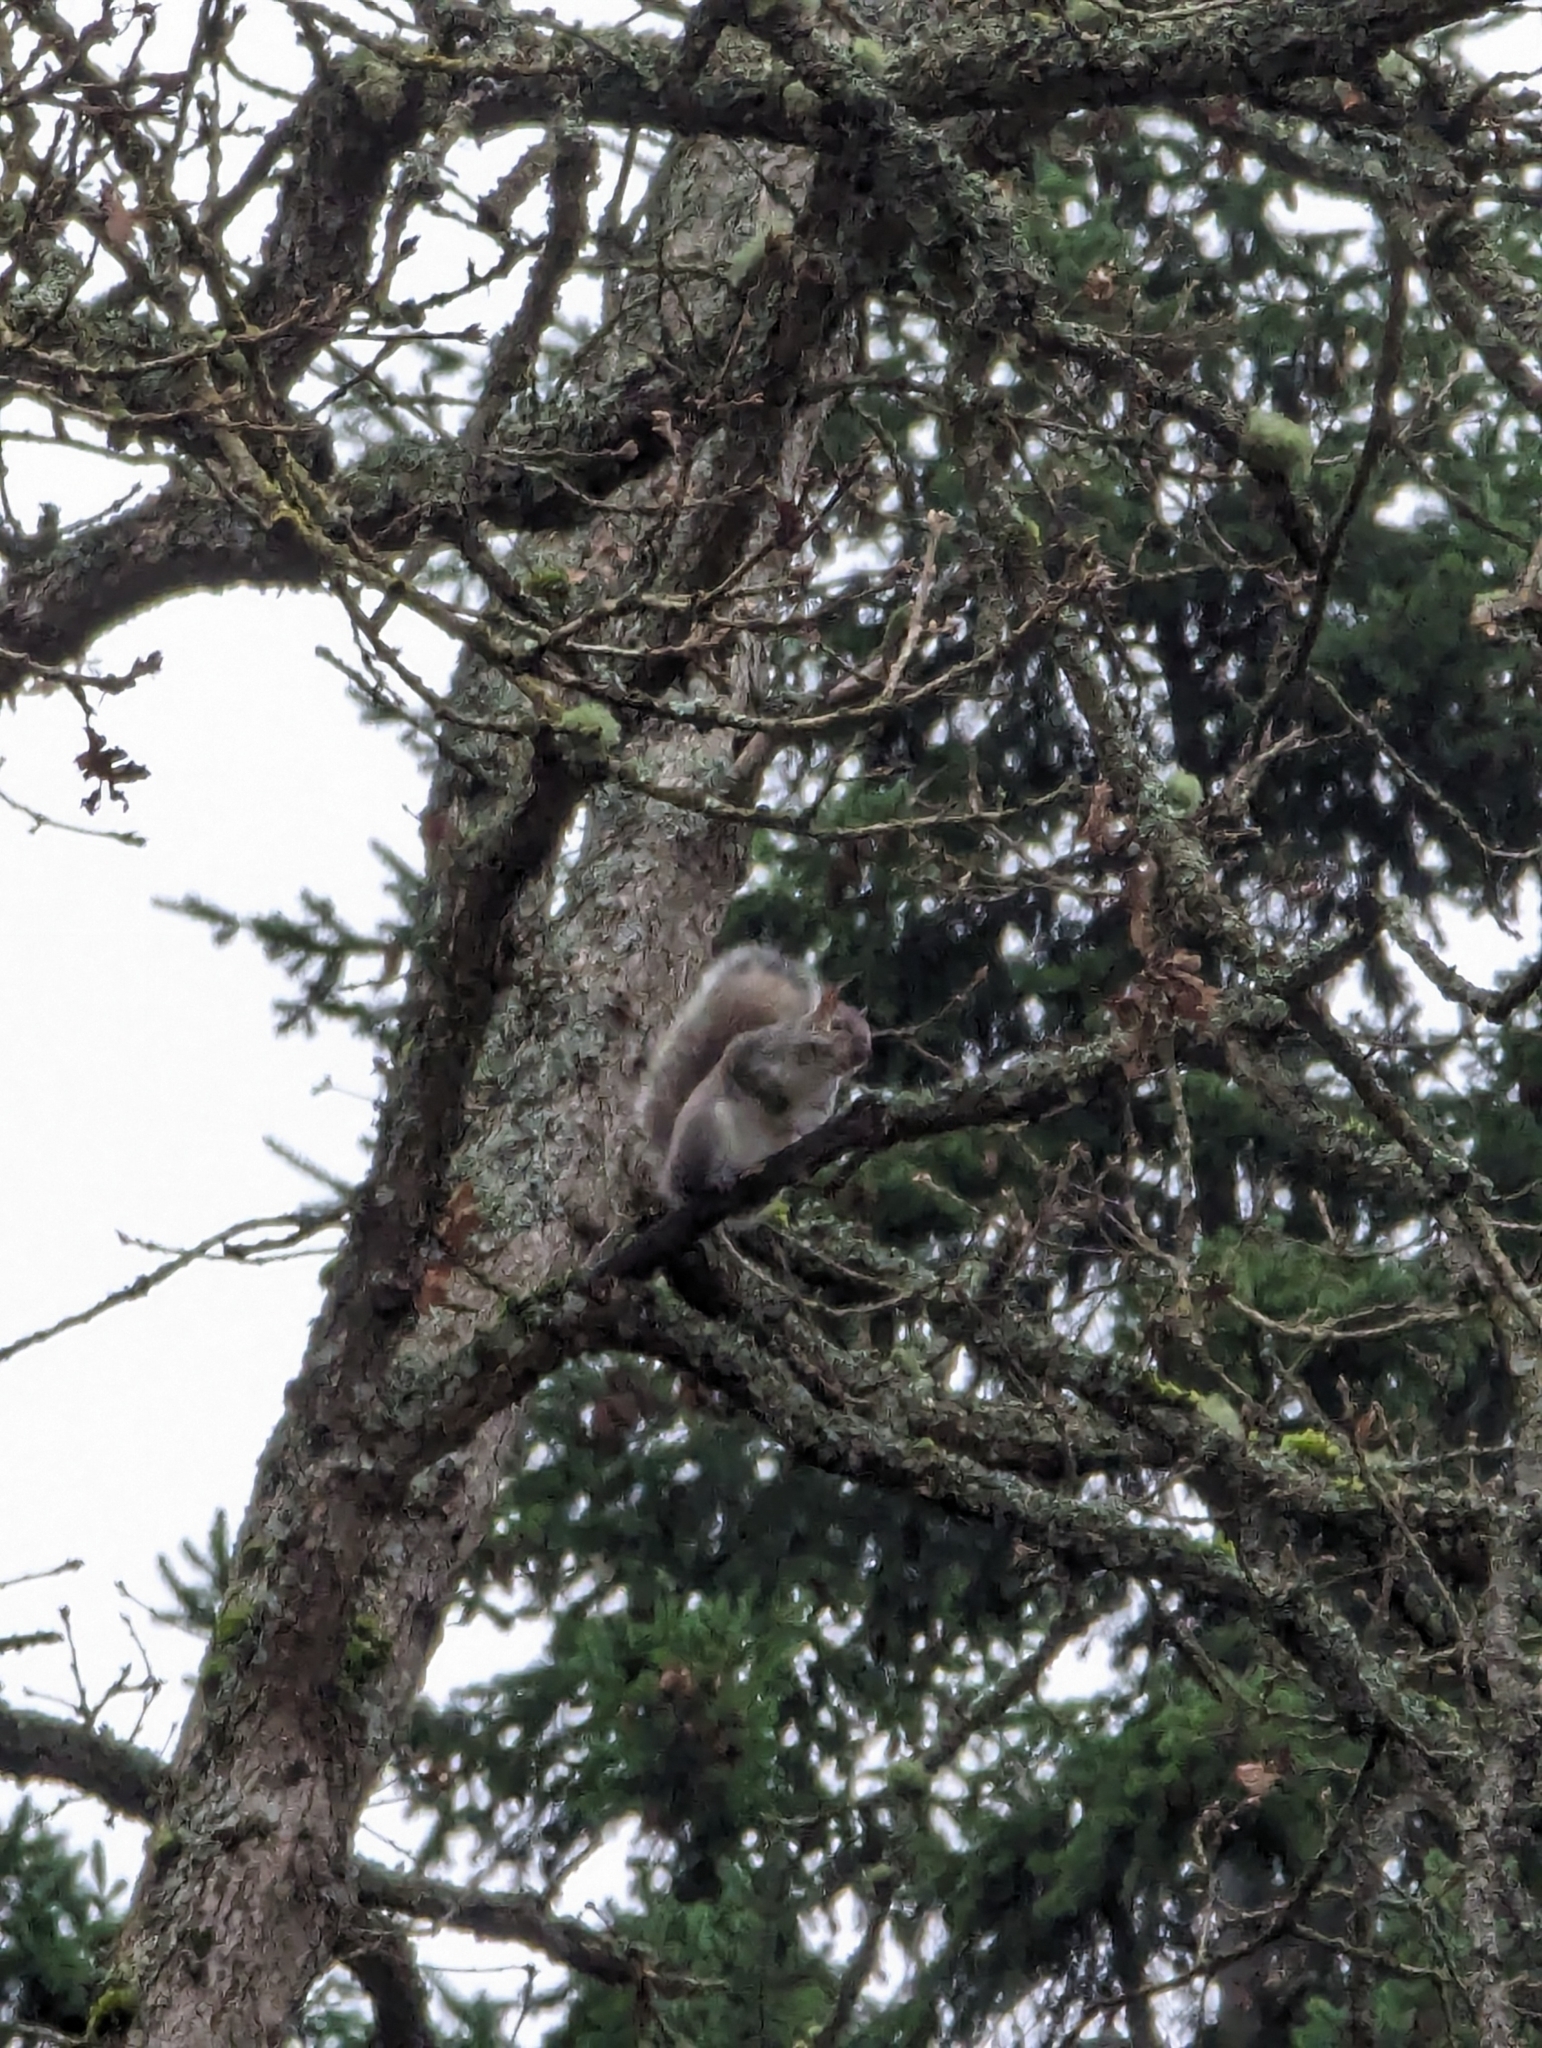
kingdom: Animalia
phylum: Chordata
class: Mammalia
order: Rodentia
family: Sciuridae
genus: Sciurus
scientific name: Sciurus carolinensis
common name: Eastern gray squirrel
